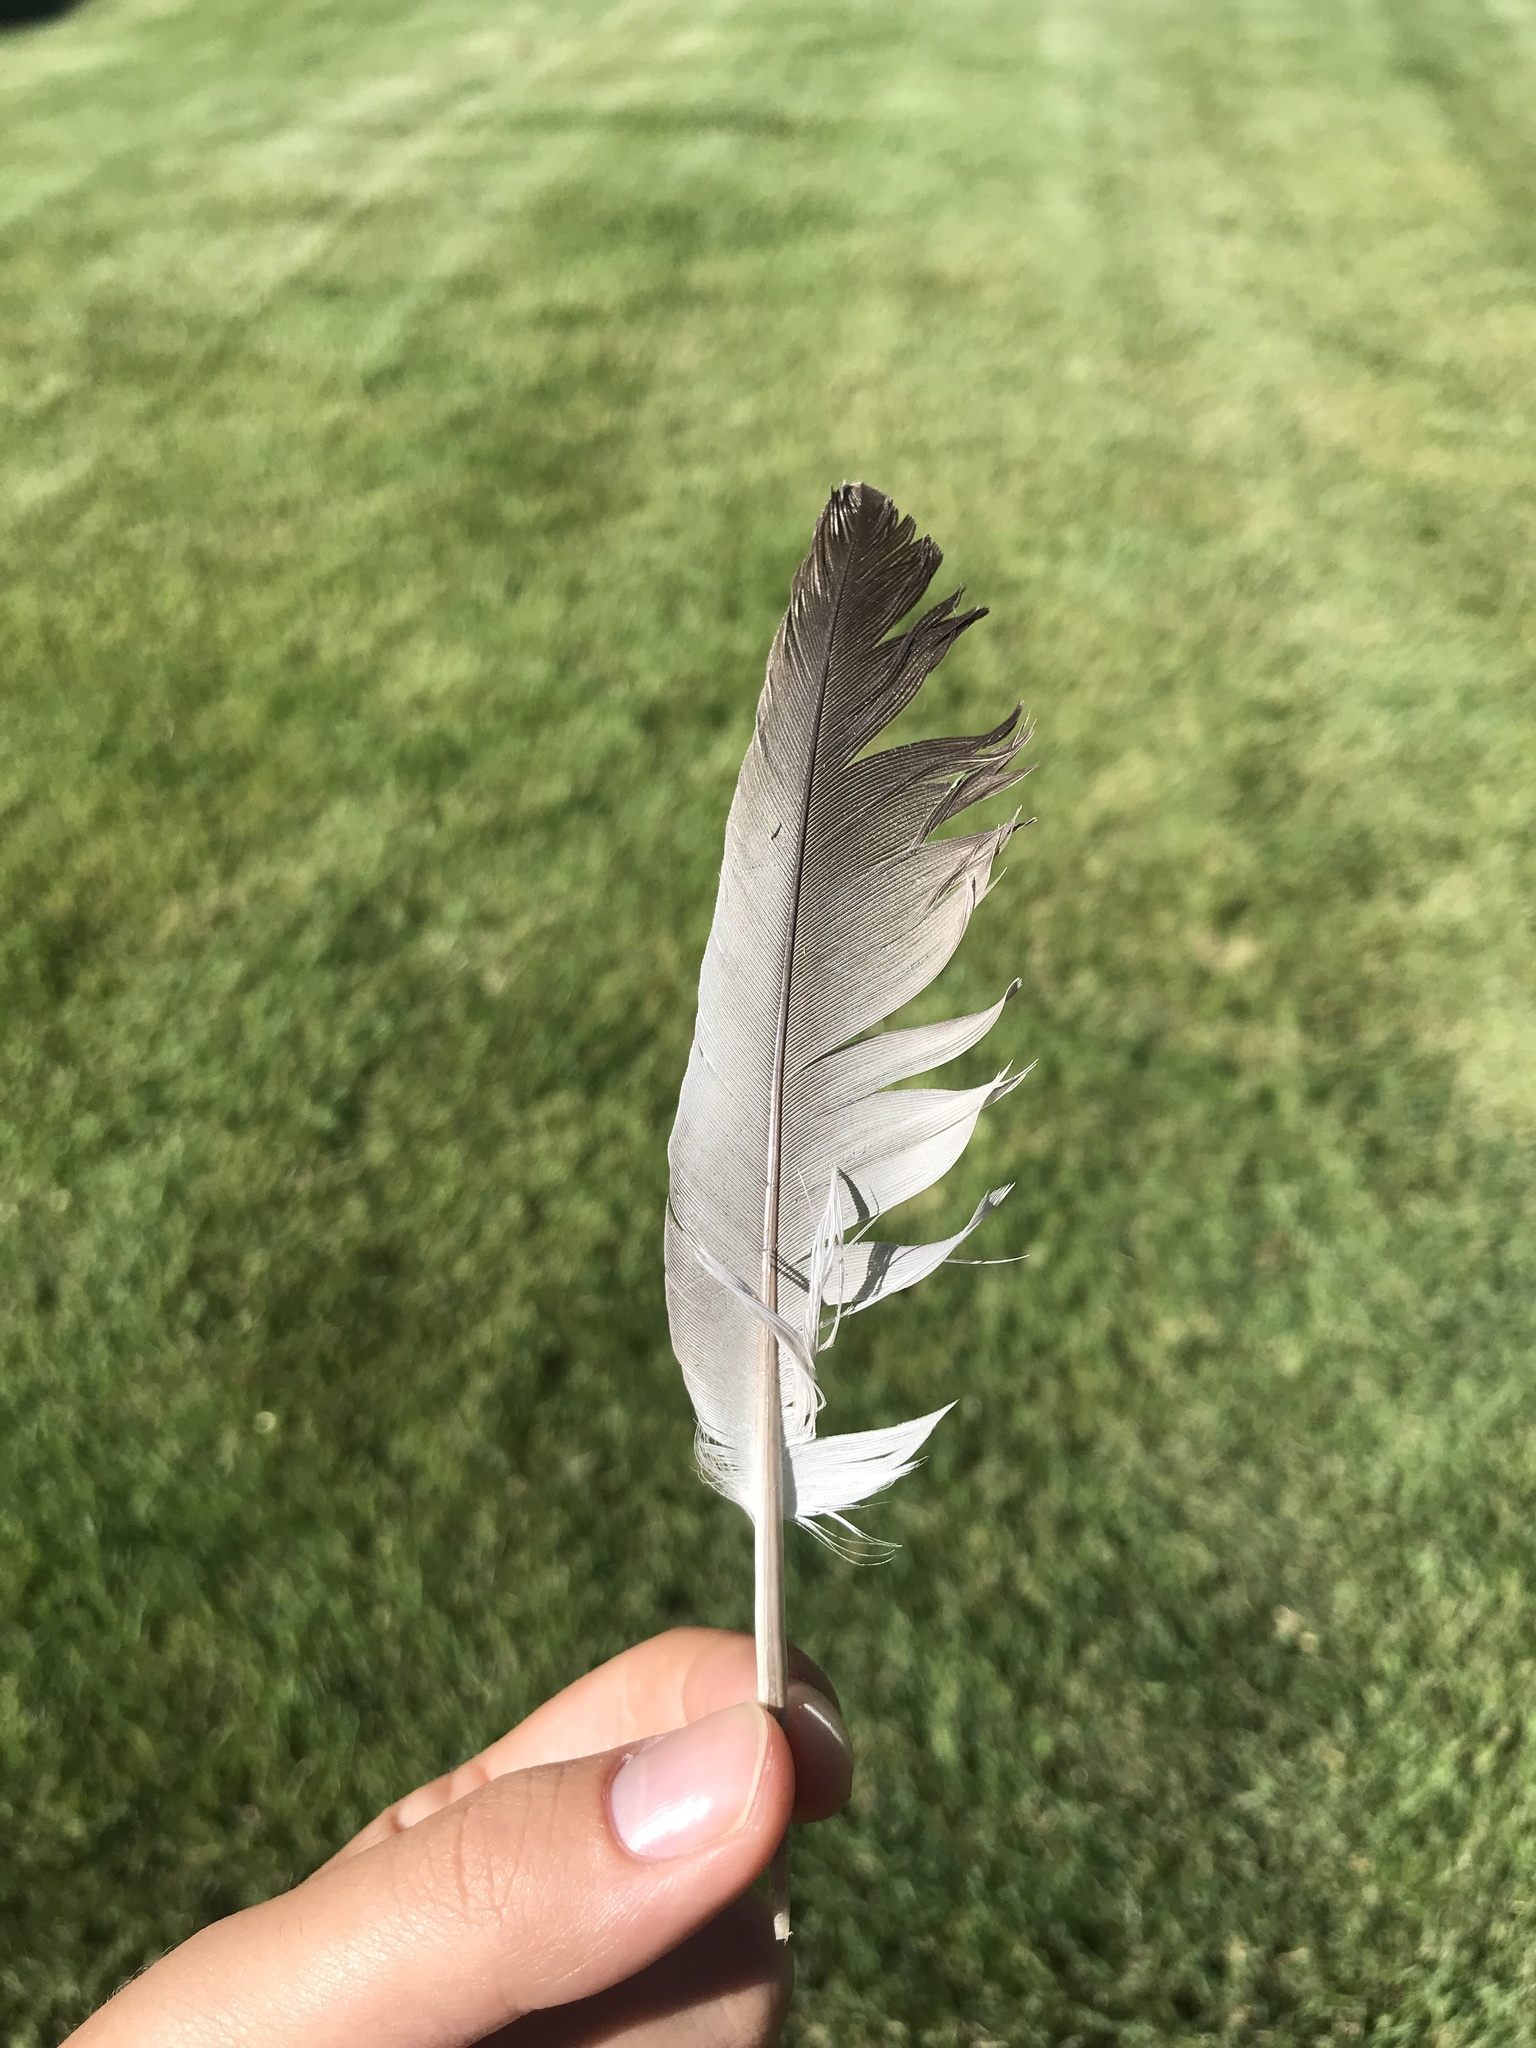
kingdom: Animalia
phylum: Chordata
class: Aves
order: Columbiformes
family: Columbidae
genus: Columba
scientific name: Columba livia
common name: Rock pigeon
